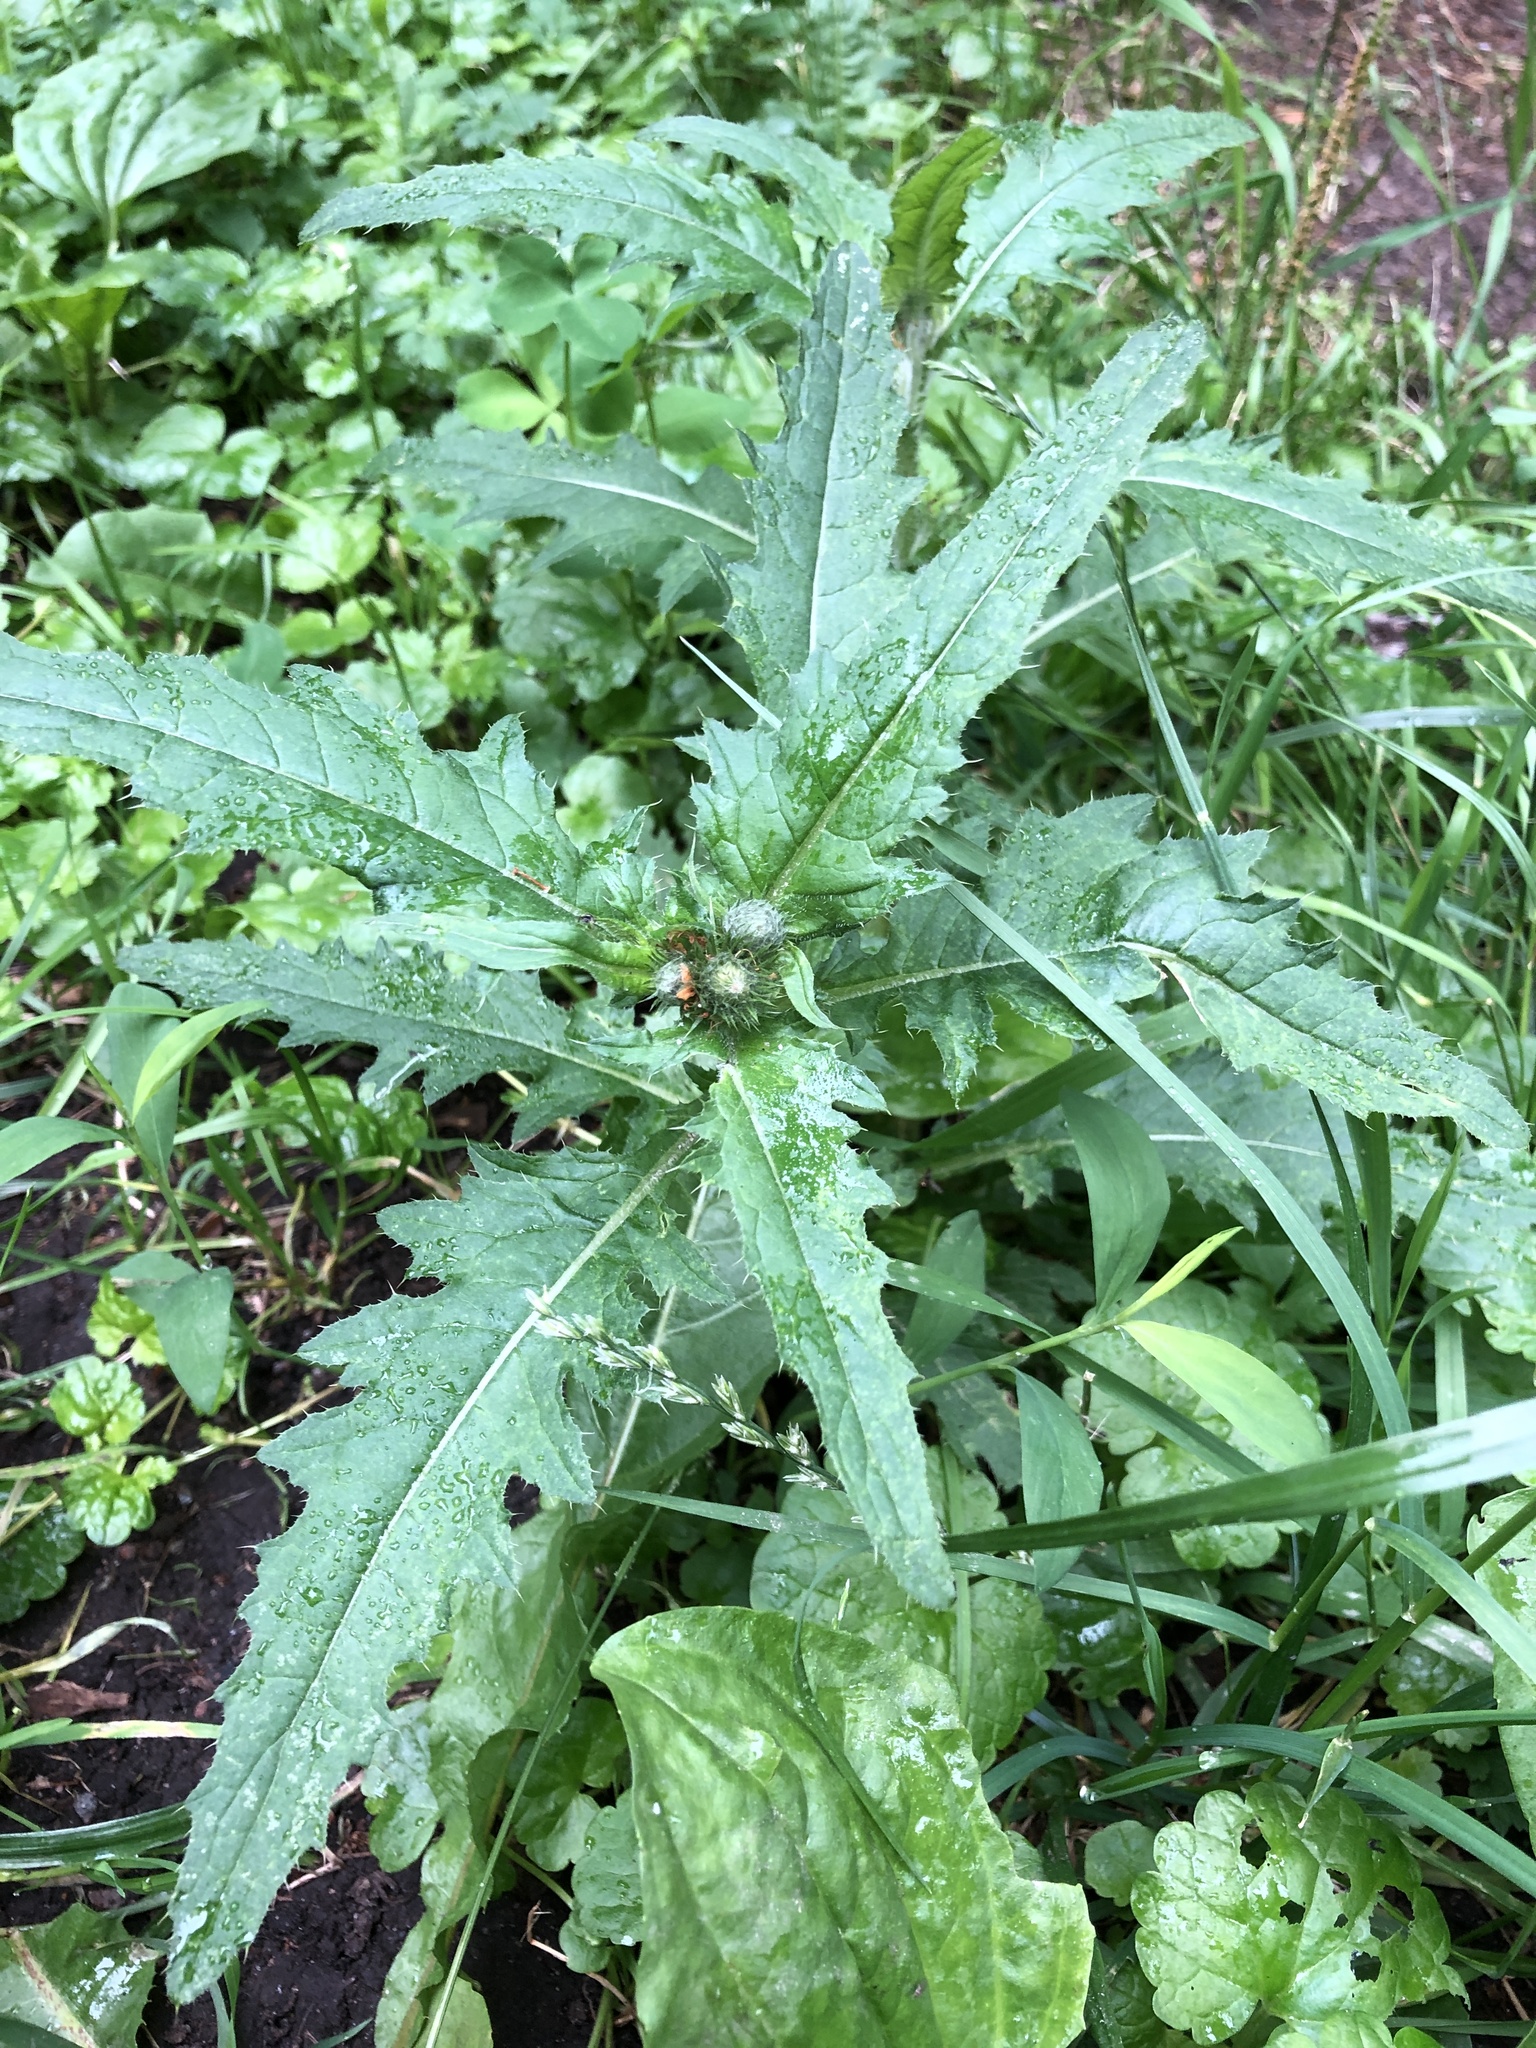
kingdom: Plantae
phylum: Tracheophyta
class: Magnoliopsida
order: Asterales
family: Asteraceae
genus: Carduus
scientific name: Carduus crispus
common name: Welted thistle
